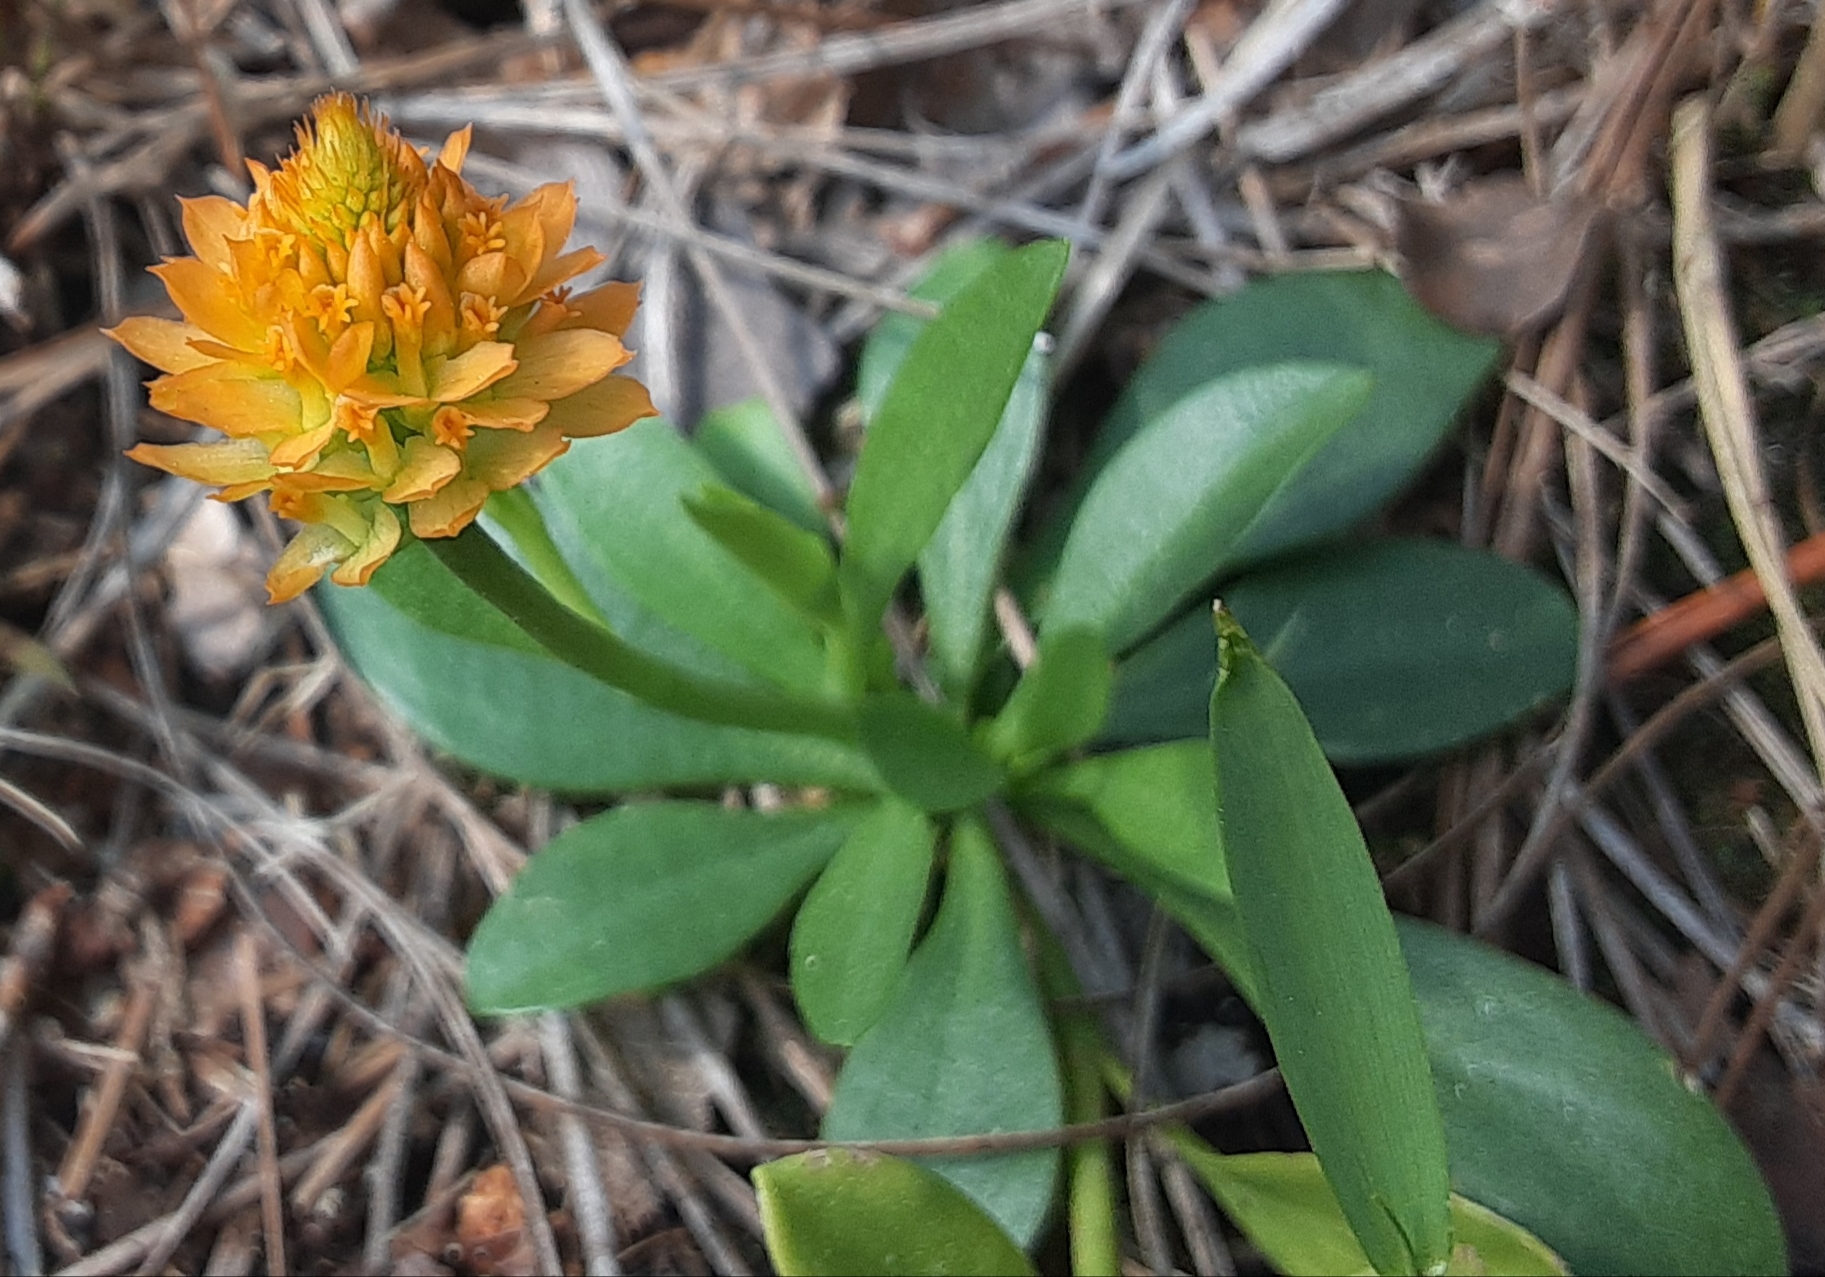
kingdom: Plantae
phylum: Tracheophyta
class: Magnoliopsida
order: Fabales
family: Polygalaceae
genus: Polygala
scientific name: Polygala lutea
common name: Orange milkwort
